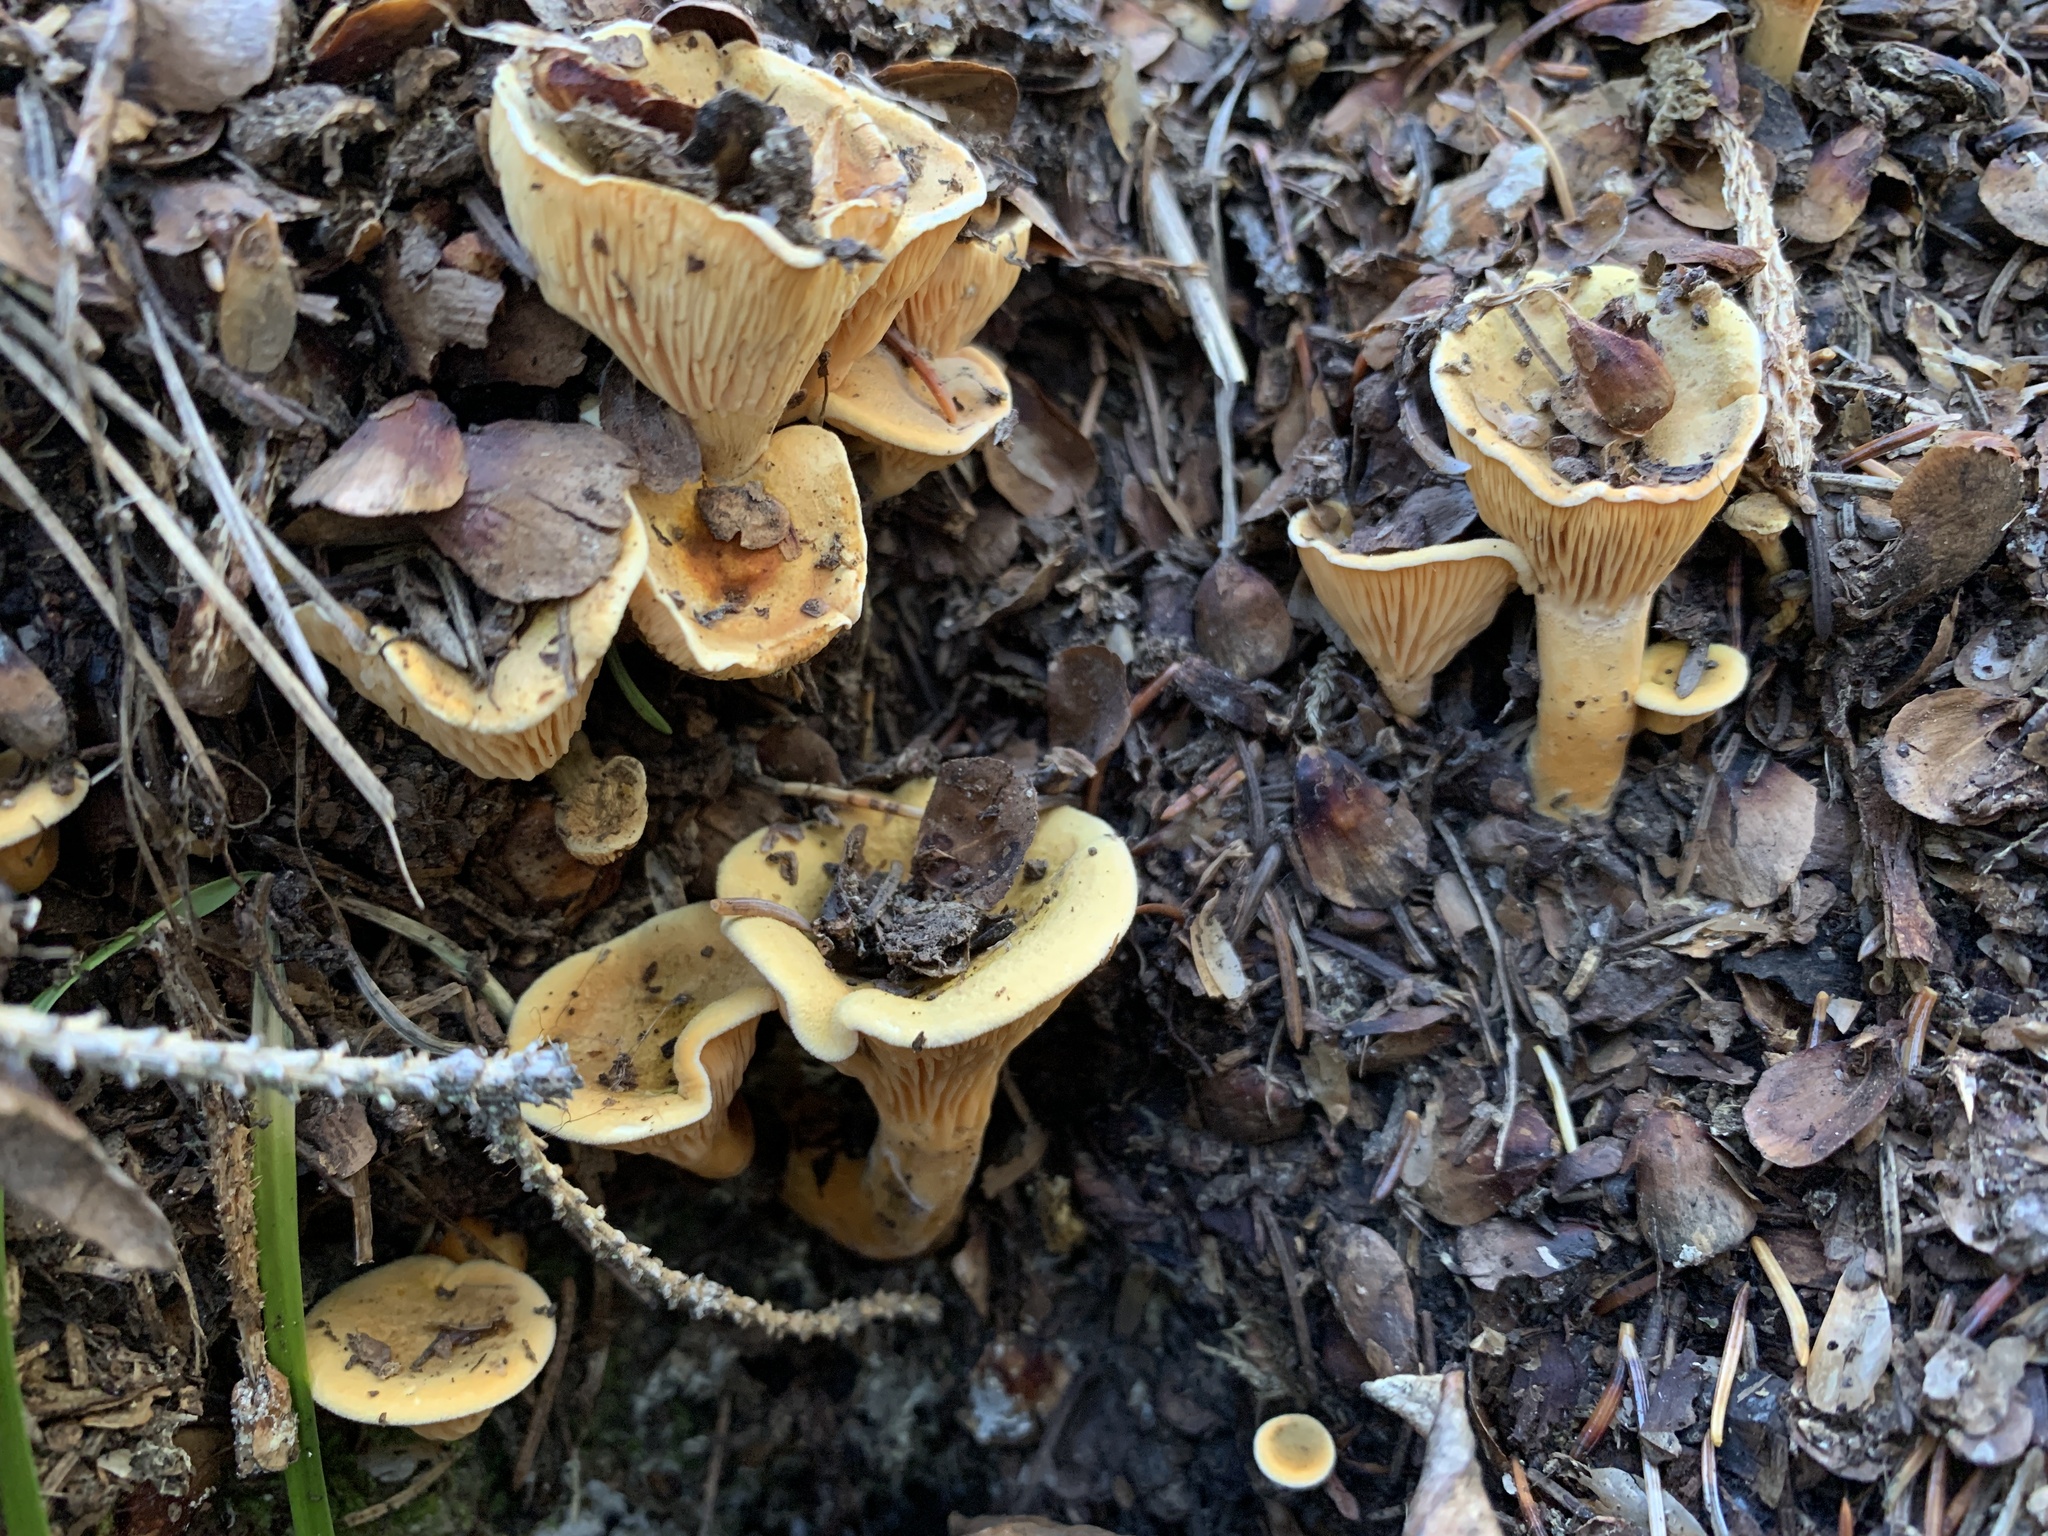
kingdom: Fungi
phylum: Basidiomycota
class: Agaricomycetes
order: Boletales
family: Hygrophoropsidaceae
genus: Hygrophoropsis
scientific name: Hygrophoropsis aurantiaca
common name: False chanterelle
